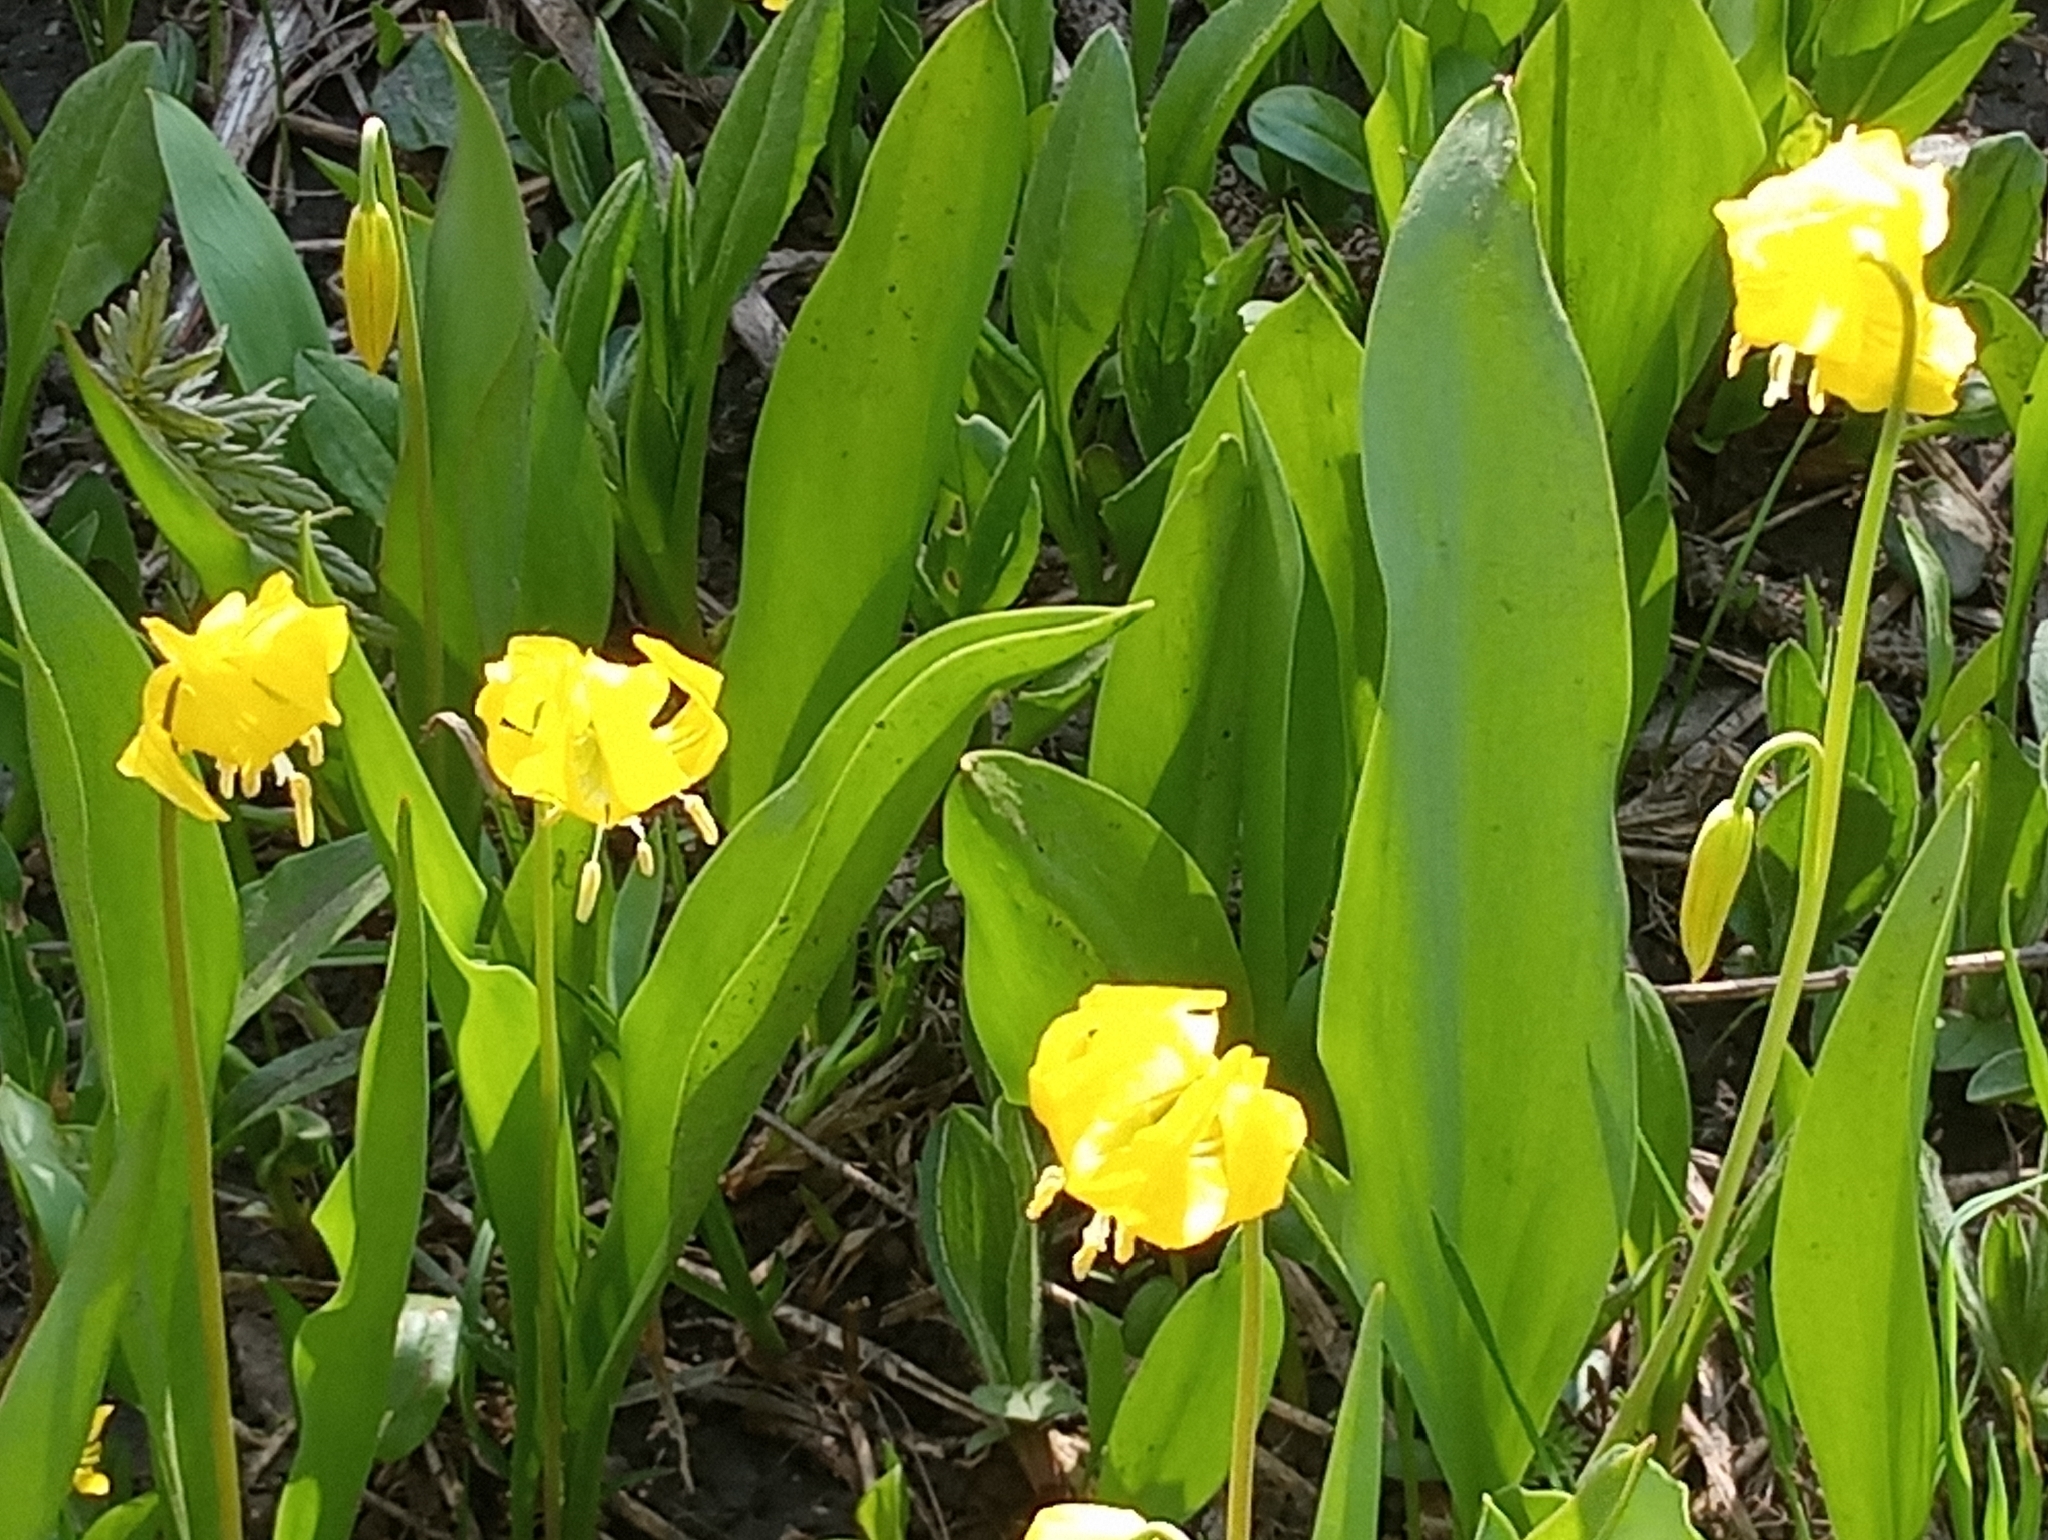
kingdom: Plantae
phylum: Tracheophyta
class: Liliopsida
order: Liliales
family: Liliaceae
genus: Erythronium
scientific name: Erythronium grandiflorum
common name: Avalanche-lily
